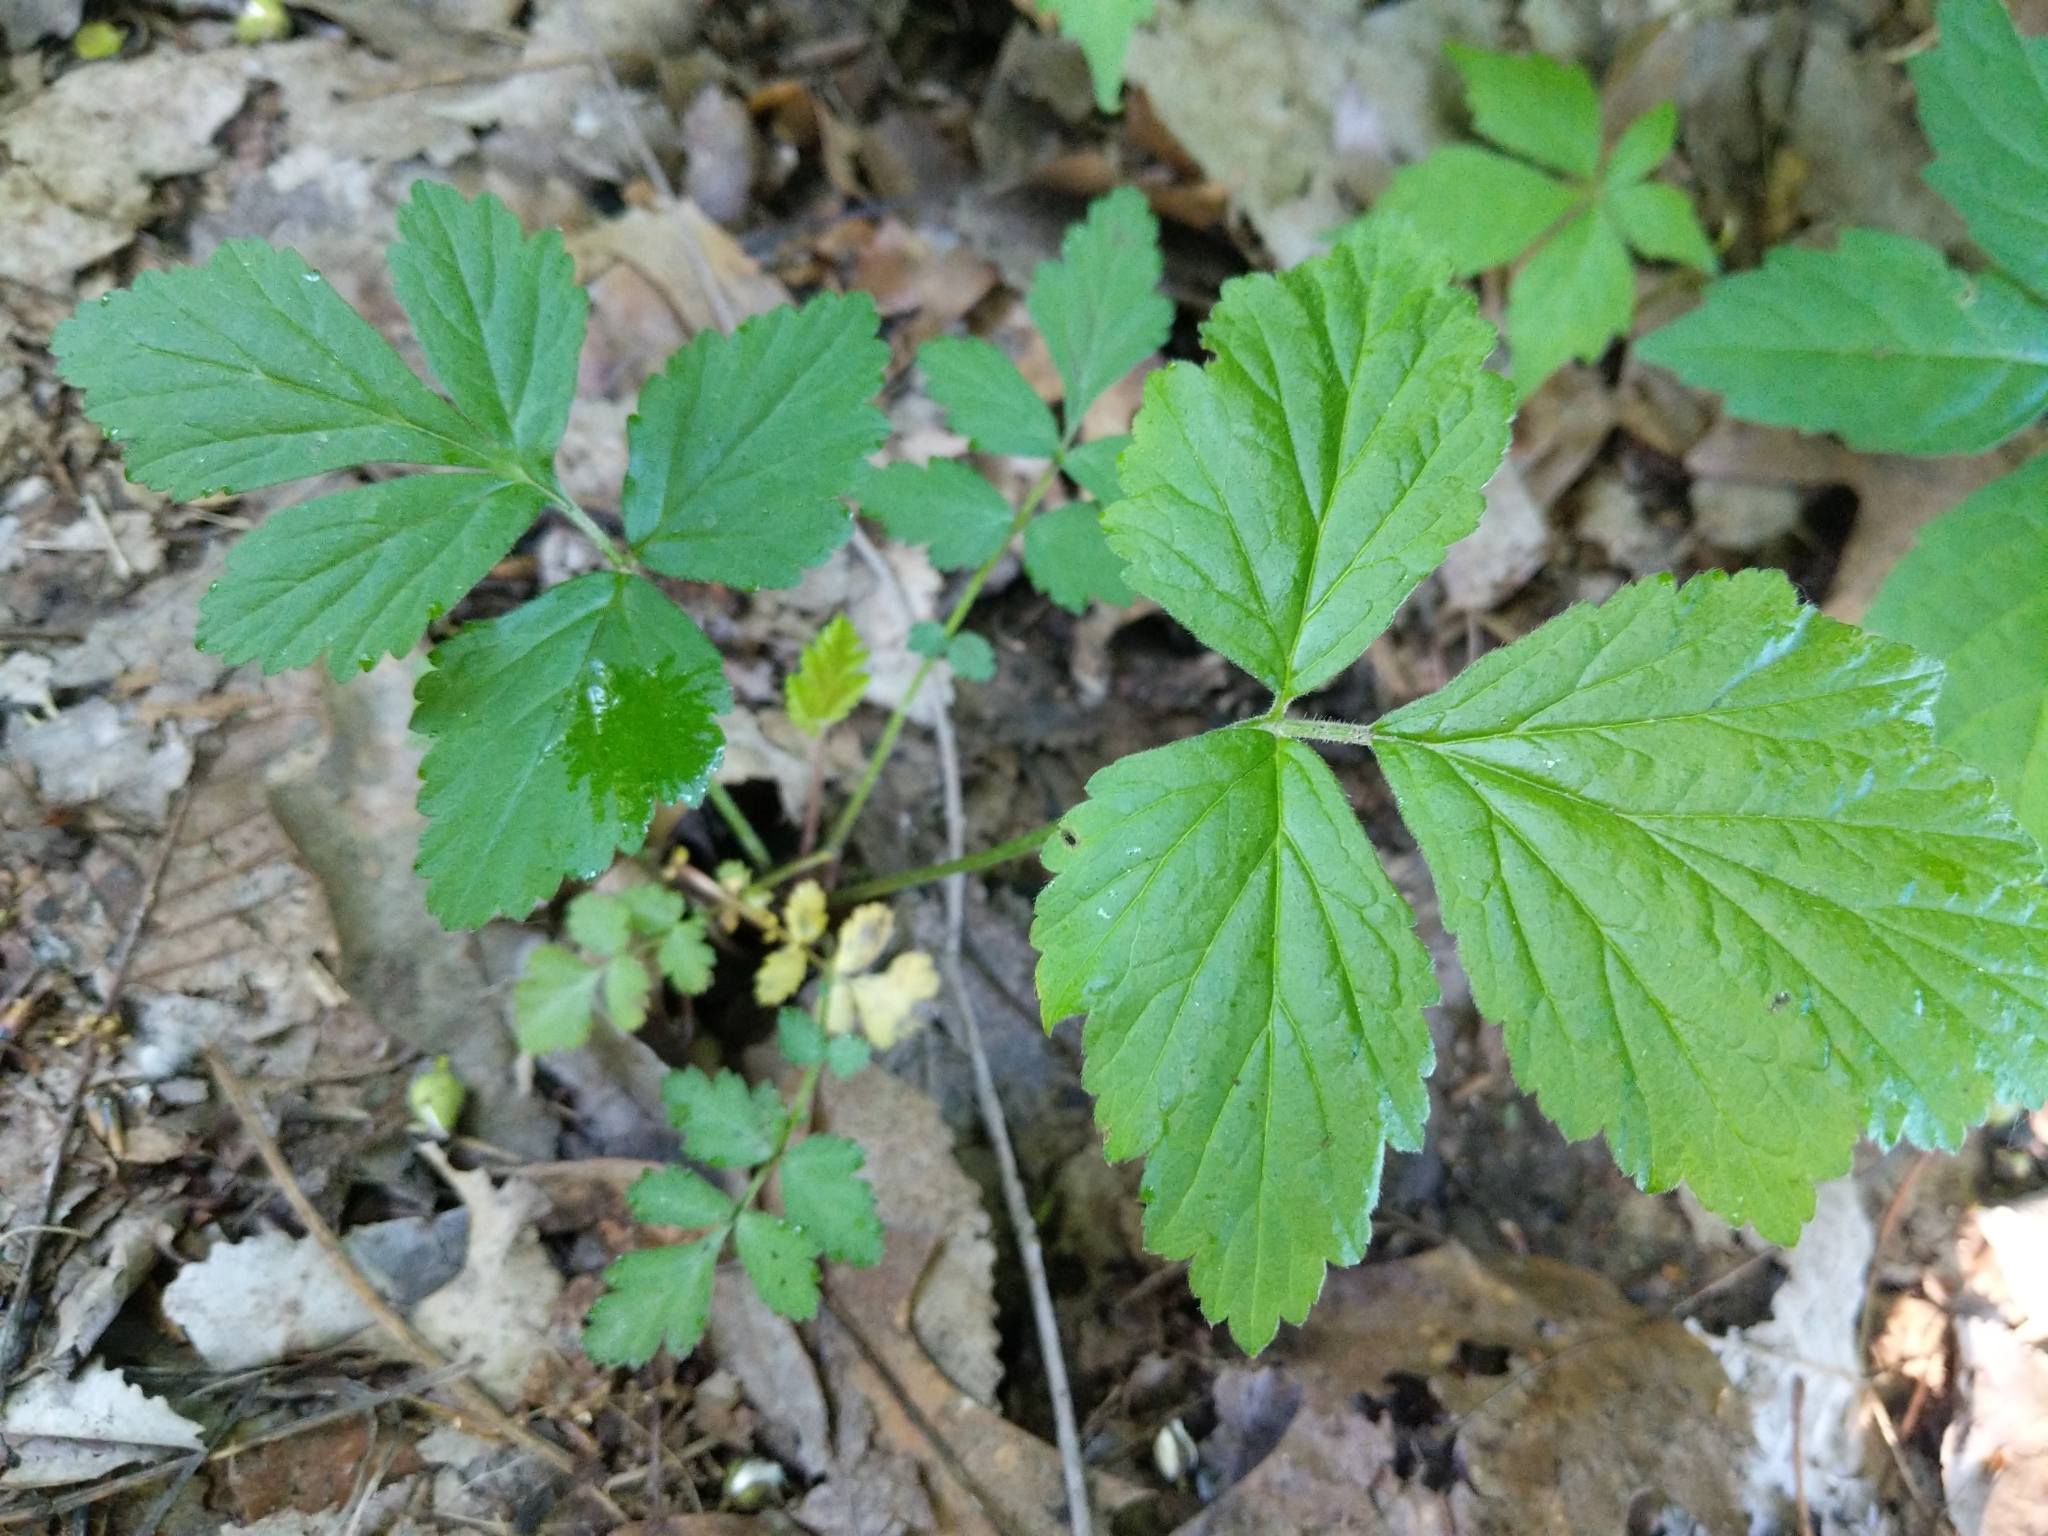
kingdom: Plantae
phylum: Tracheophyta
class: Magnoliopsida
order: Rosales
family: Rosaceae
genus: Geum
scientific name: Geum canadense
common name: White avens
